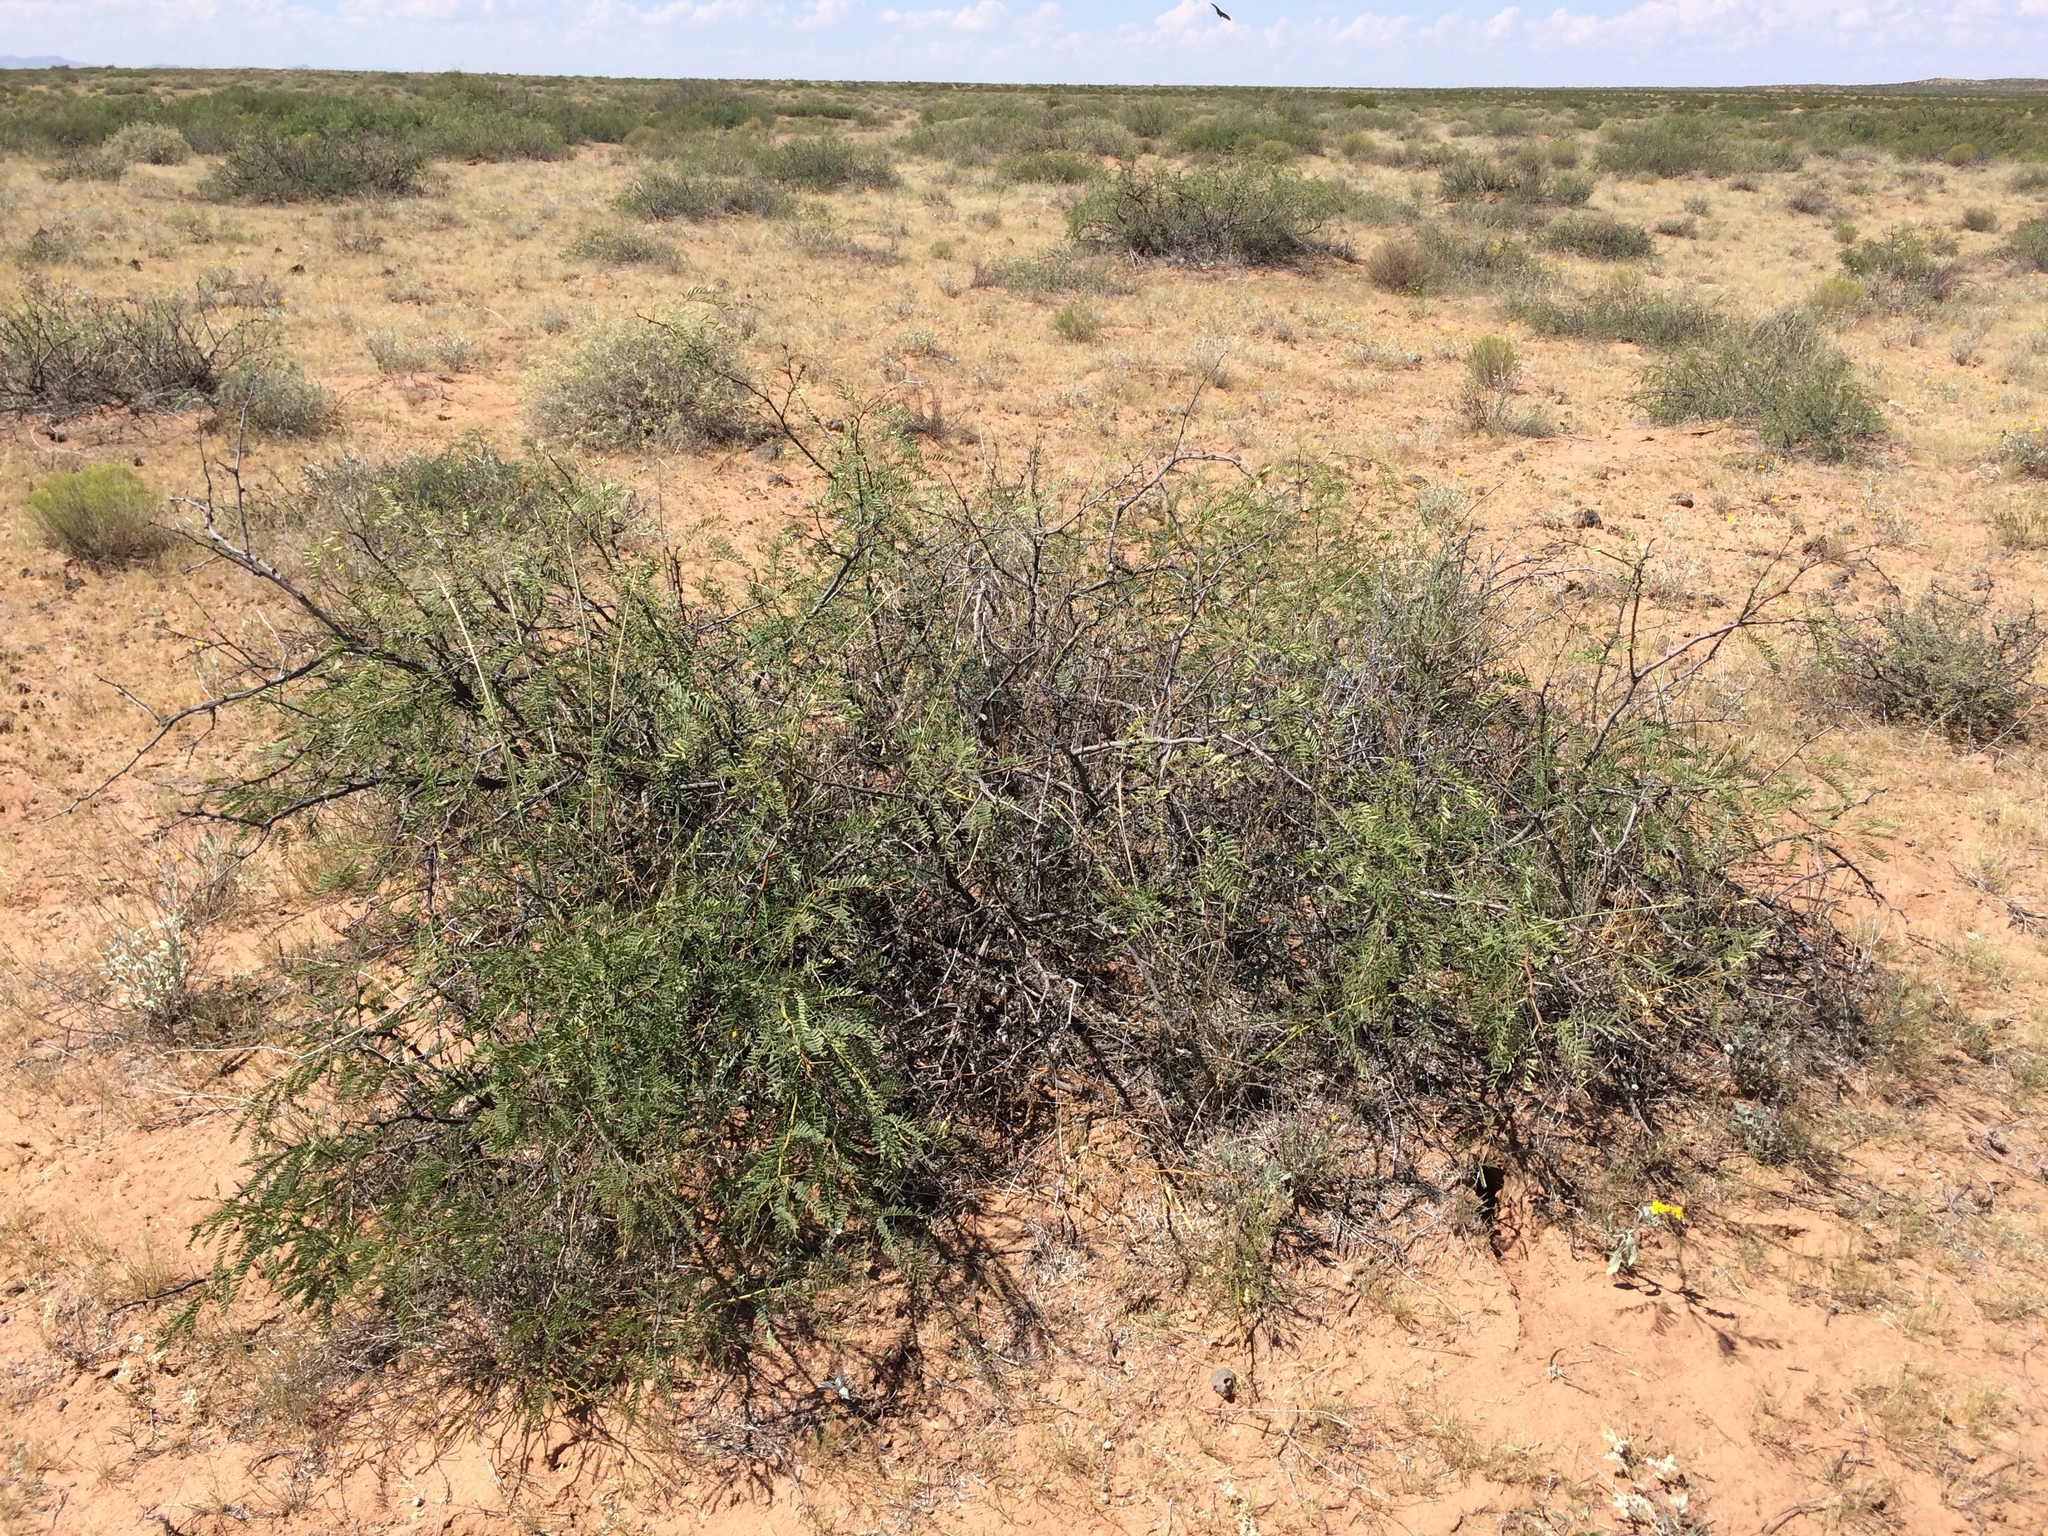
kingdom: Plantae
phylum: Tracheophyta
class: Magnoliopsida
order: Fabales
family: Fabaceae
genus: Prosopis
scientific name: Prosopis glandulosa
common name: Honey mesquite
